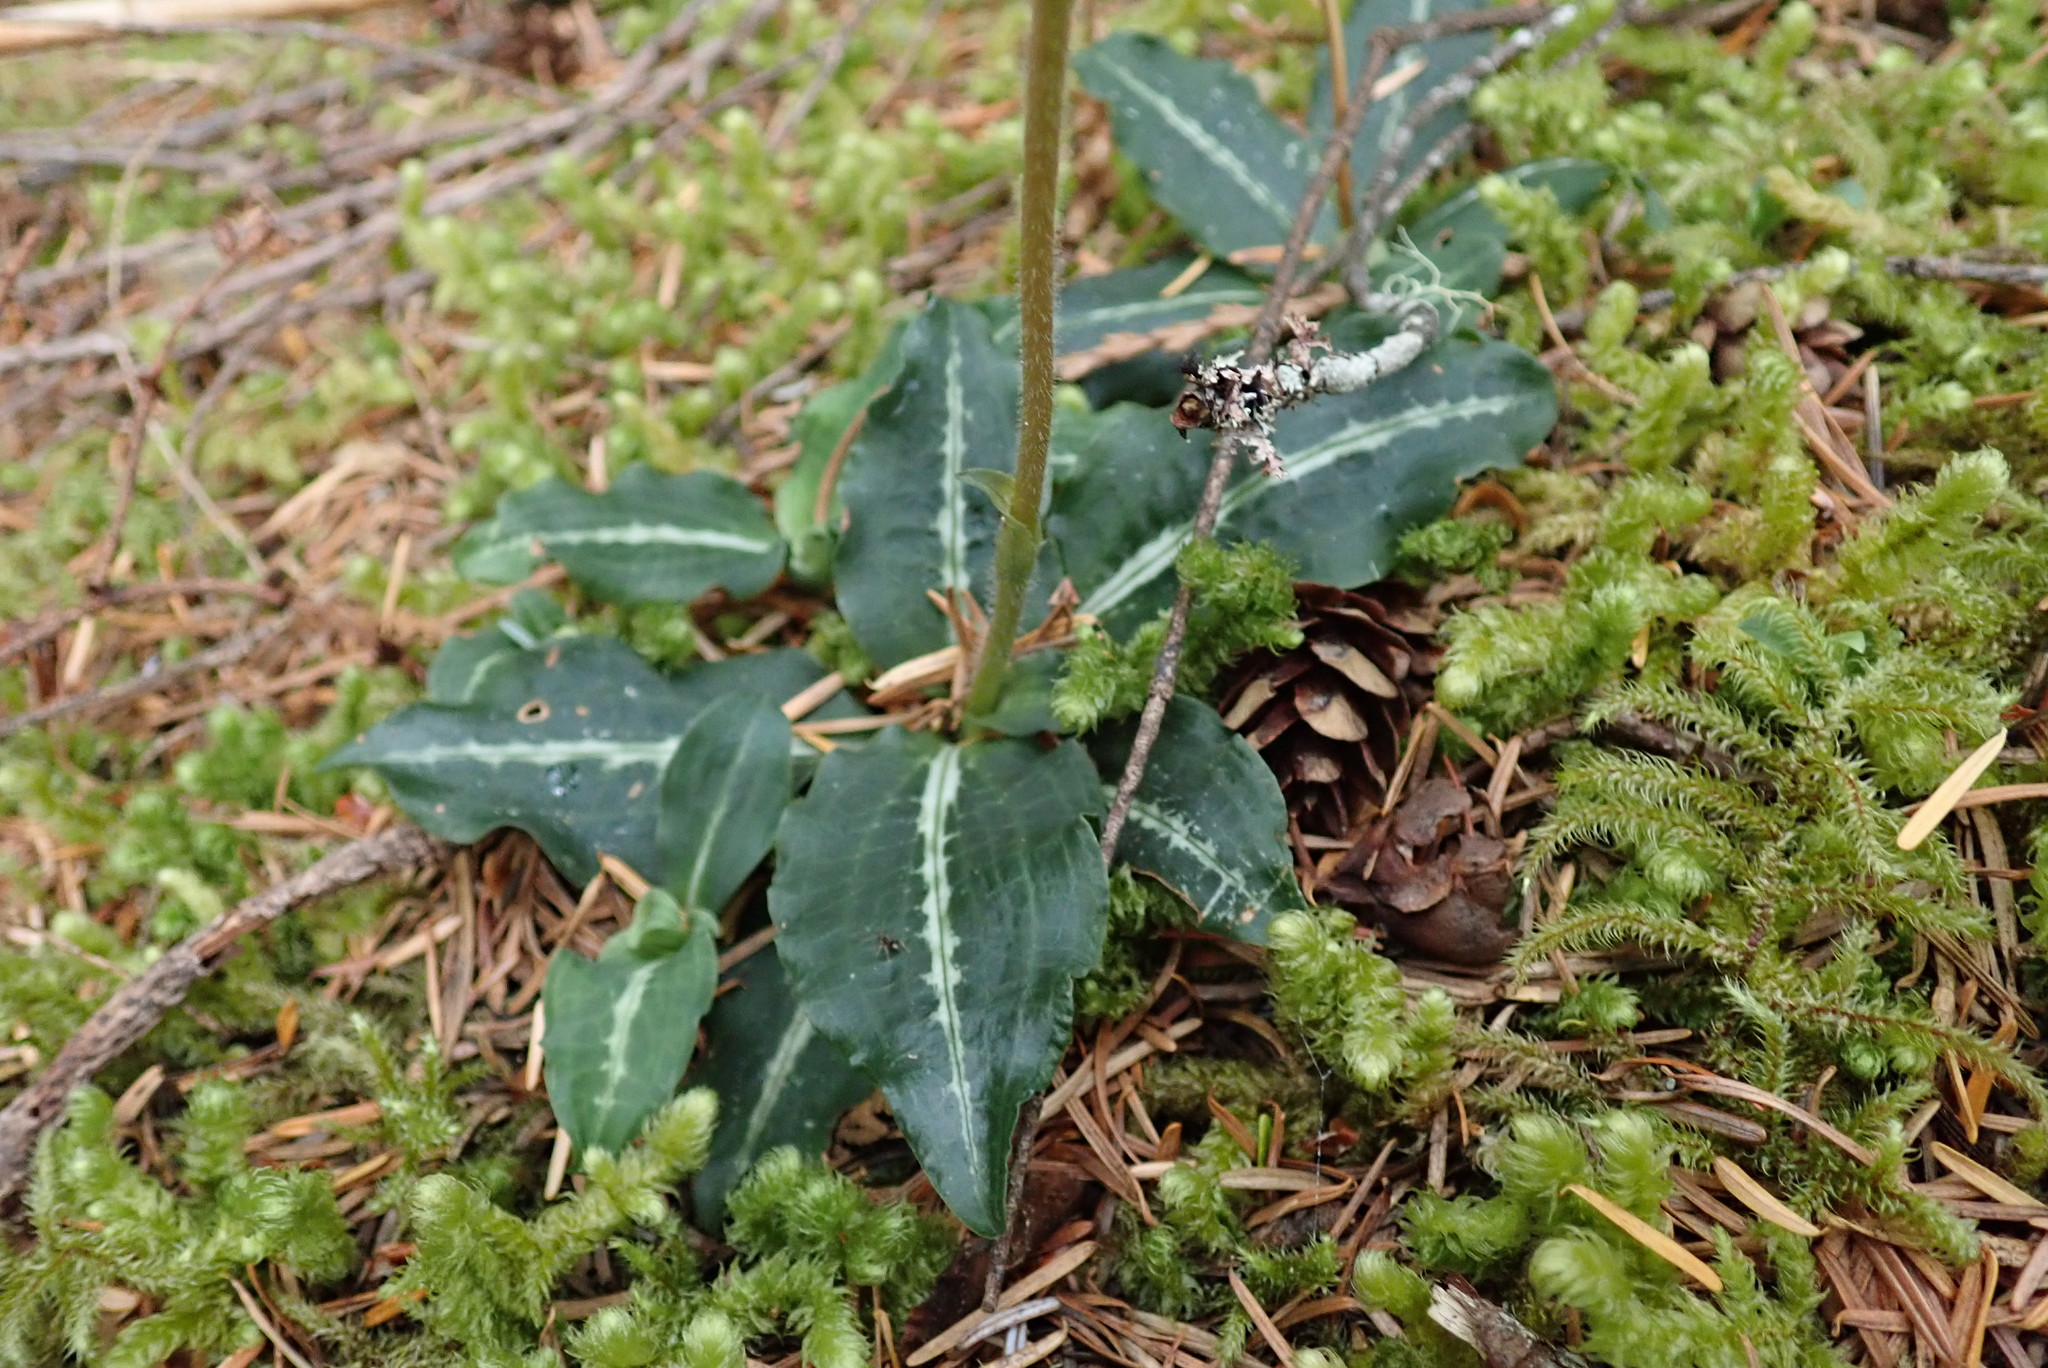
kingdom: Plantae
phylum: Tracheophyta
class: Liliopsida
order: Asparagales
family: Orchidaceae
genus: Goodyera
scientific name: Goodyera oblongifolia
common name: Giant rattlesnake-plantain
